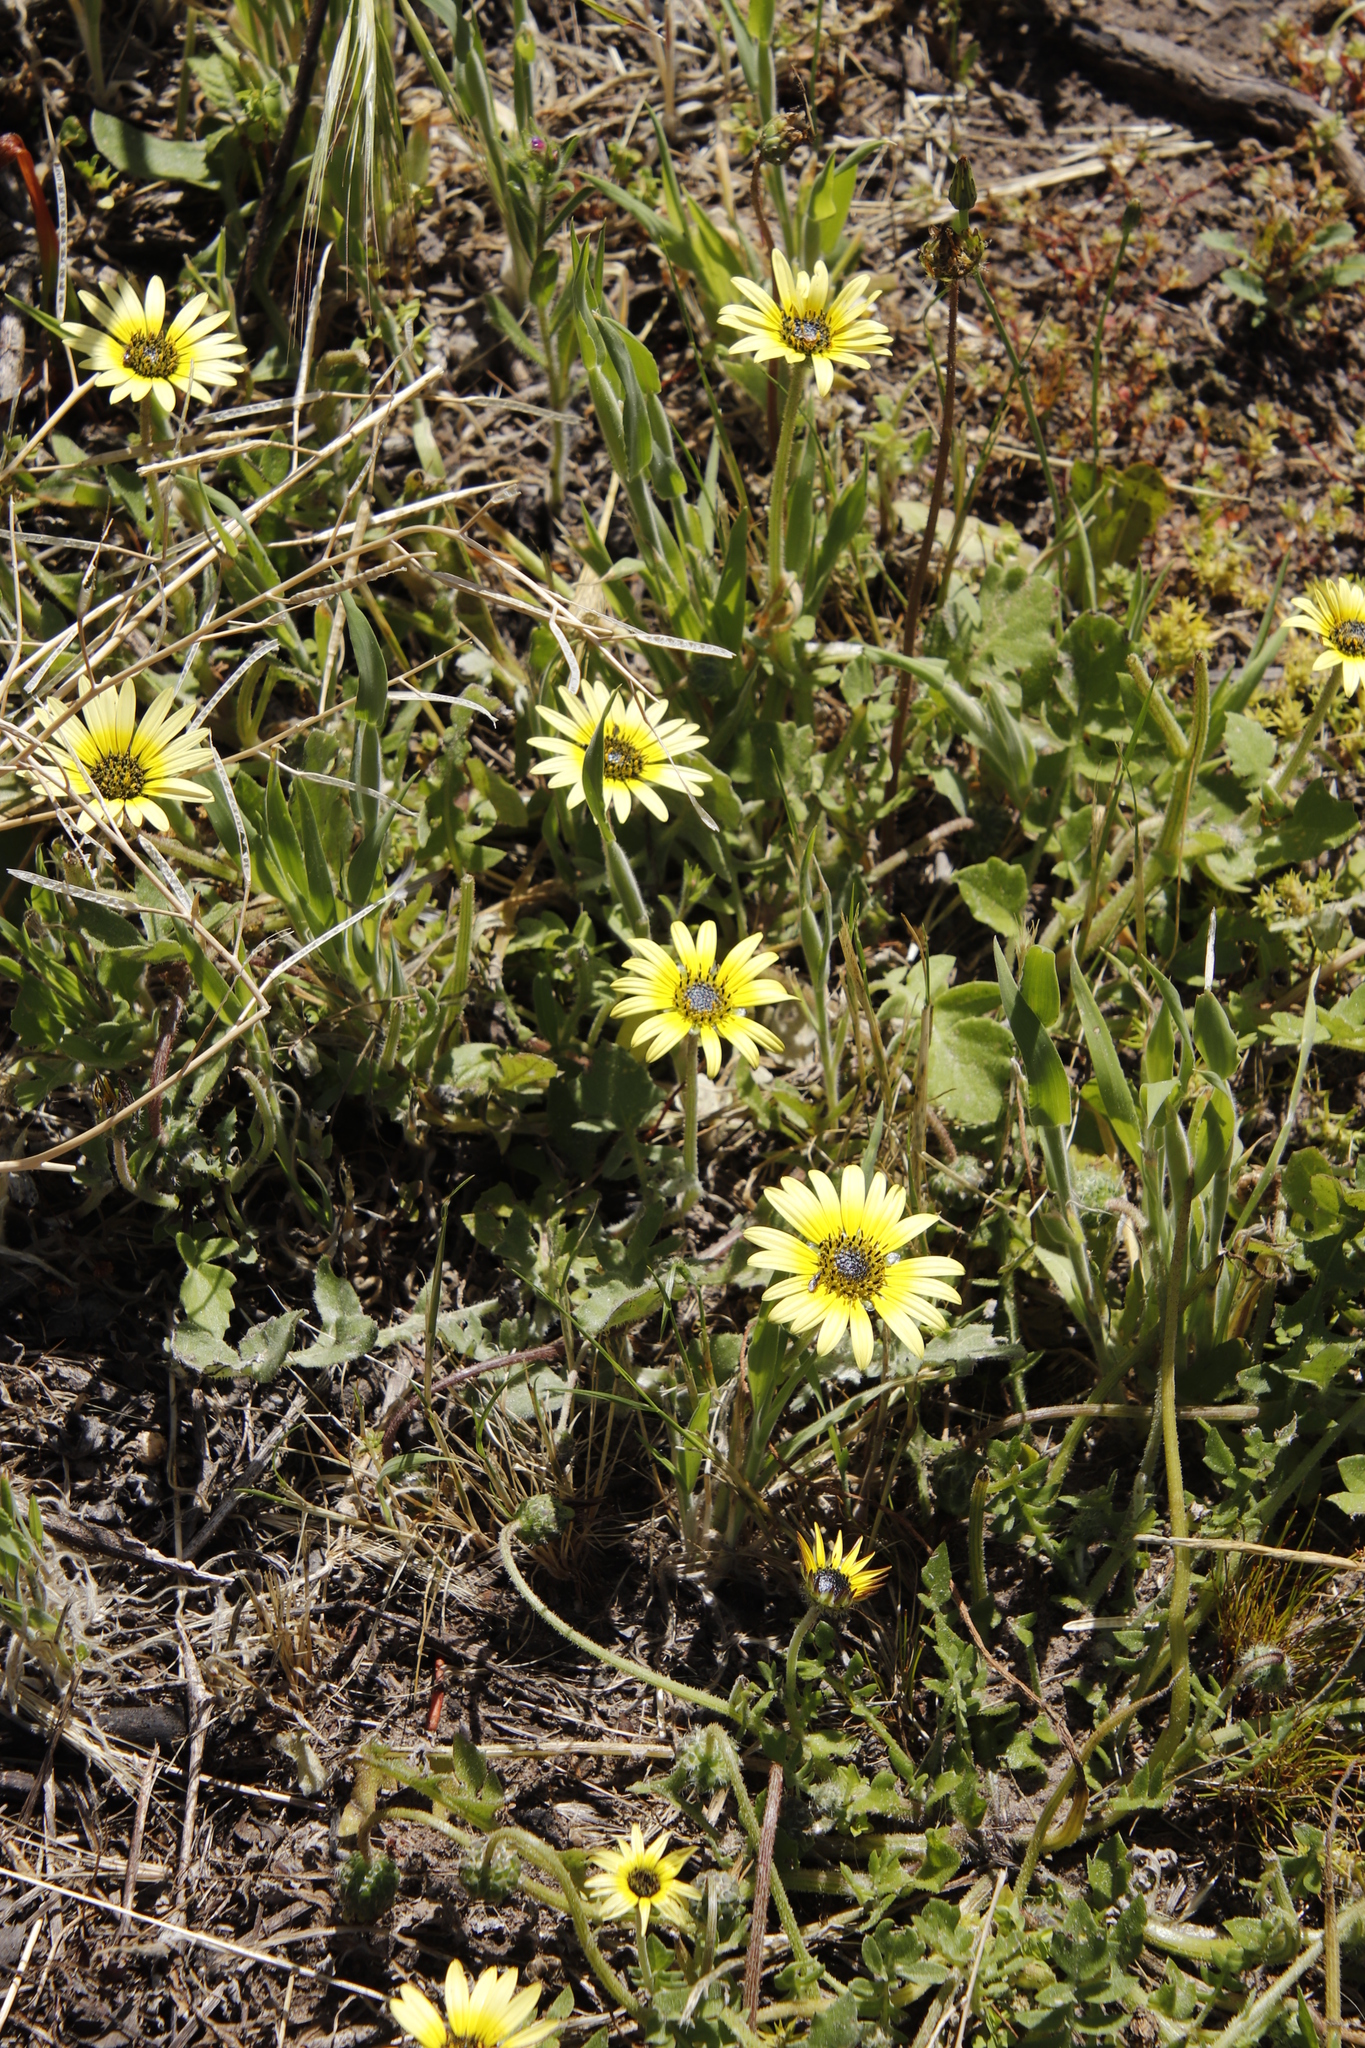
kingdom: Plantae
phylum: Tracheophyta
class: Magnoliopsida
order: Asterales
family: Asteraceae
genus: Arctotheca
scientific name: Arctotheca calendula
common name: Capeweed
